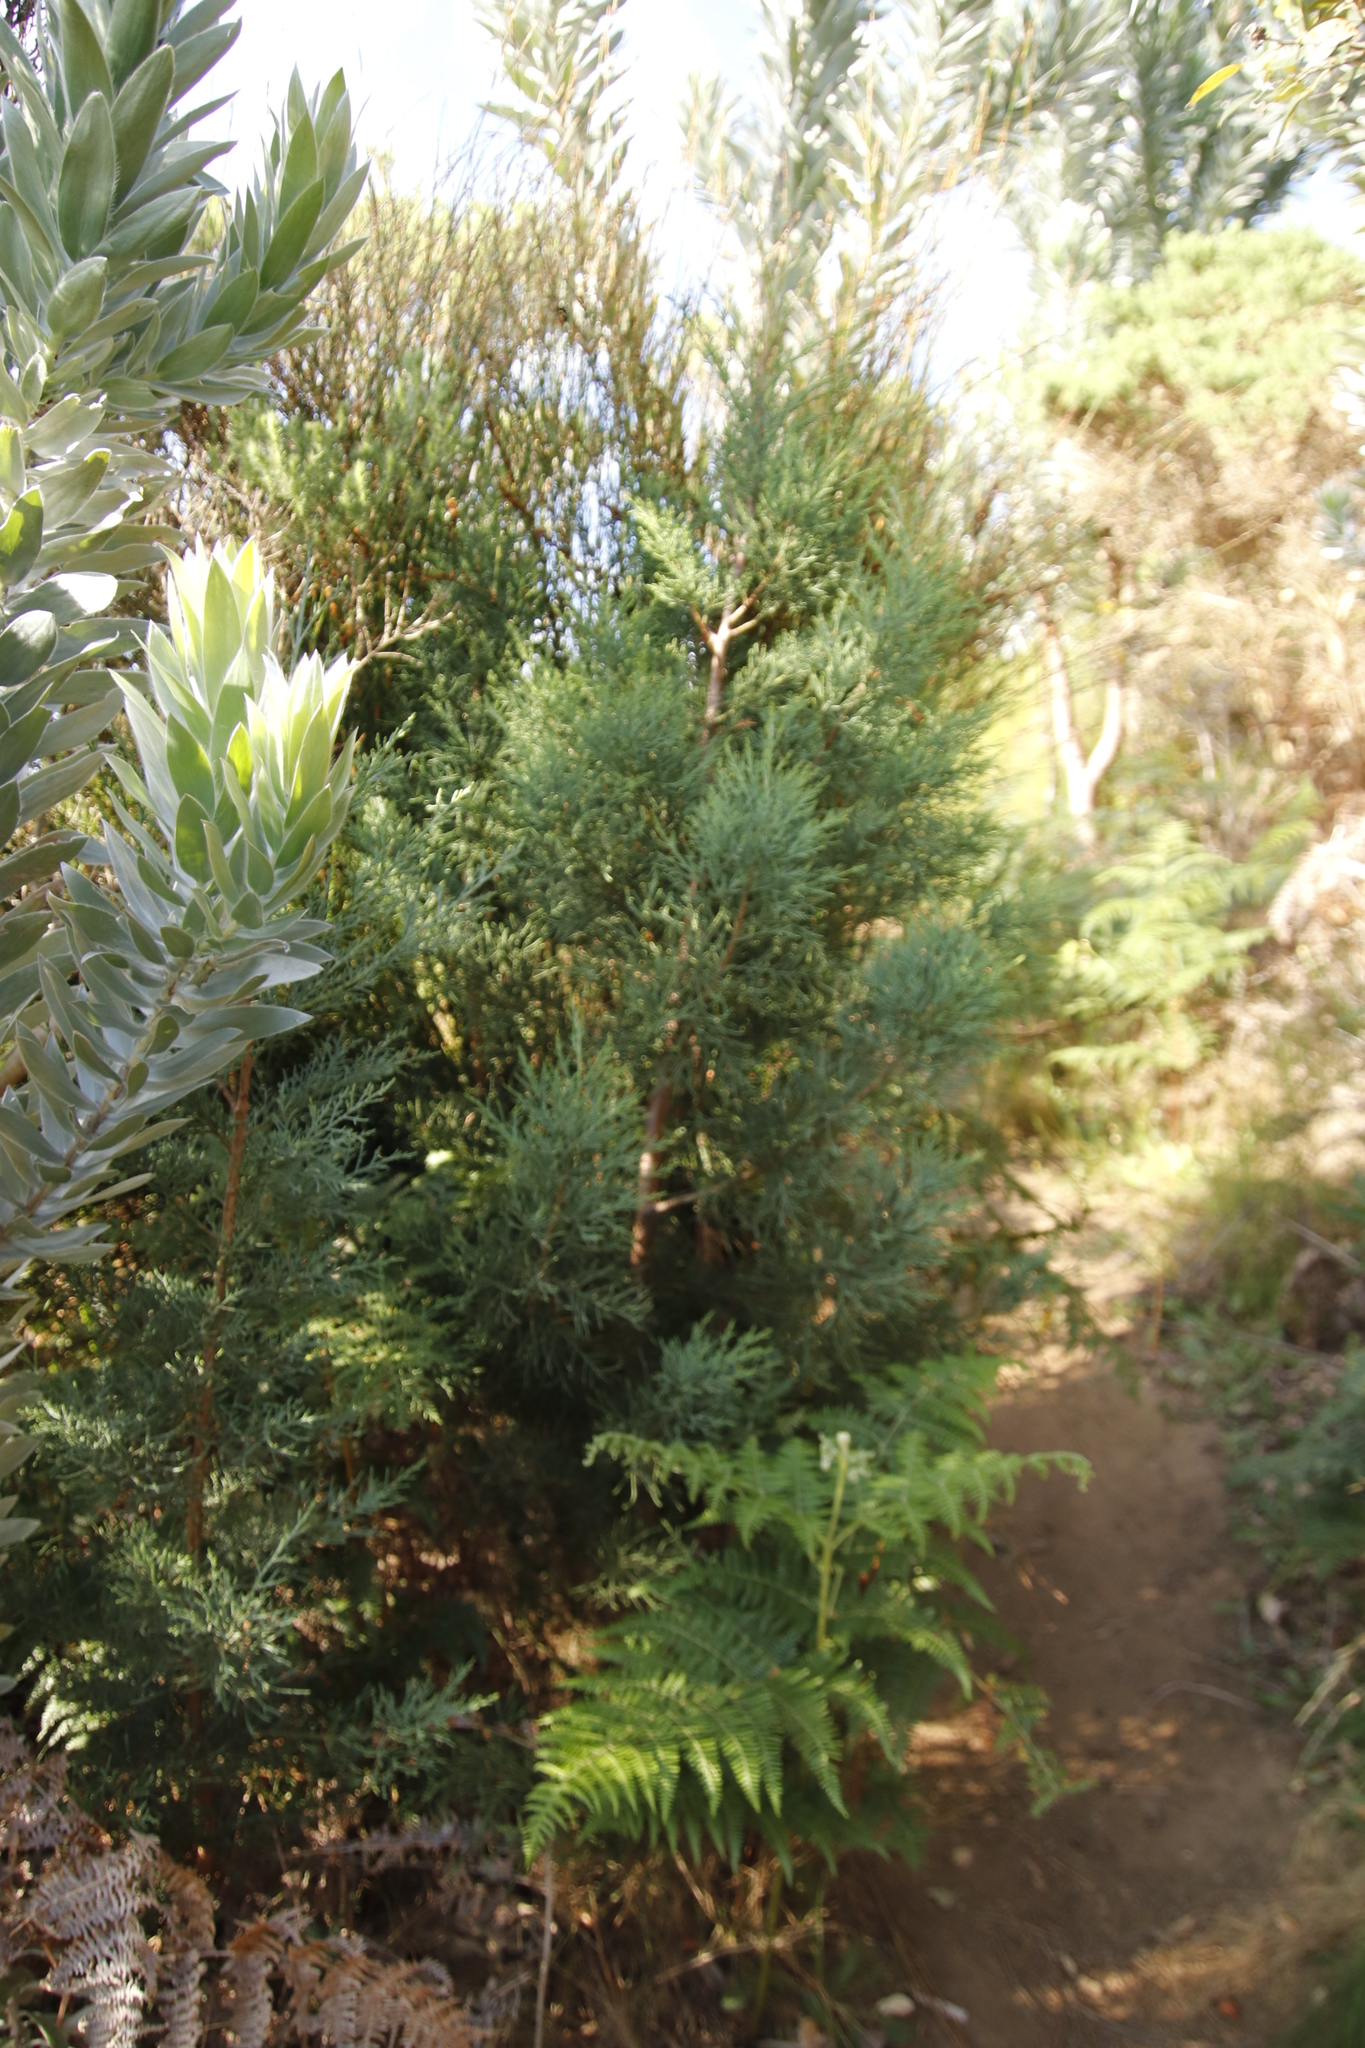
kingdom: Plantae
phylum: Tracheophyta
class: Pinopsida
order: Pinales
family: Cupressaceae
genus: Widdringtonia
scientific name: Widdringtonia nodiflora
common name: Cape cypress
